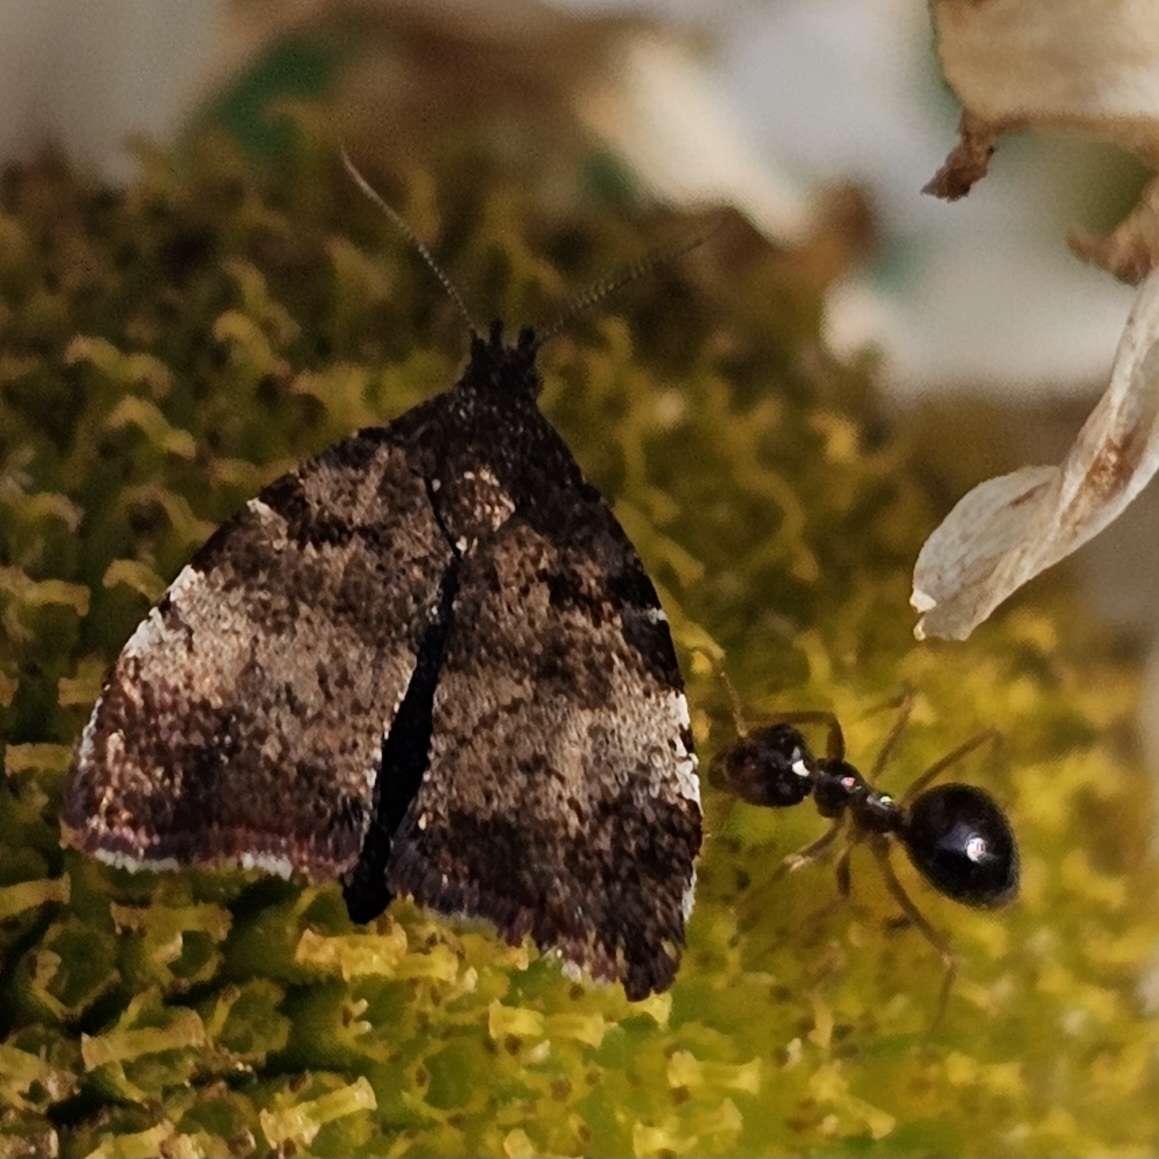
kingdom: Animalia
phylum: Arthropoda
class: Insecta
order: Lepidoptera
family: Choreutidae
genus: Choreutis
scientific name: Choreutis pariana
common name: Apple leaf skeletoniser
